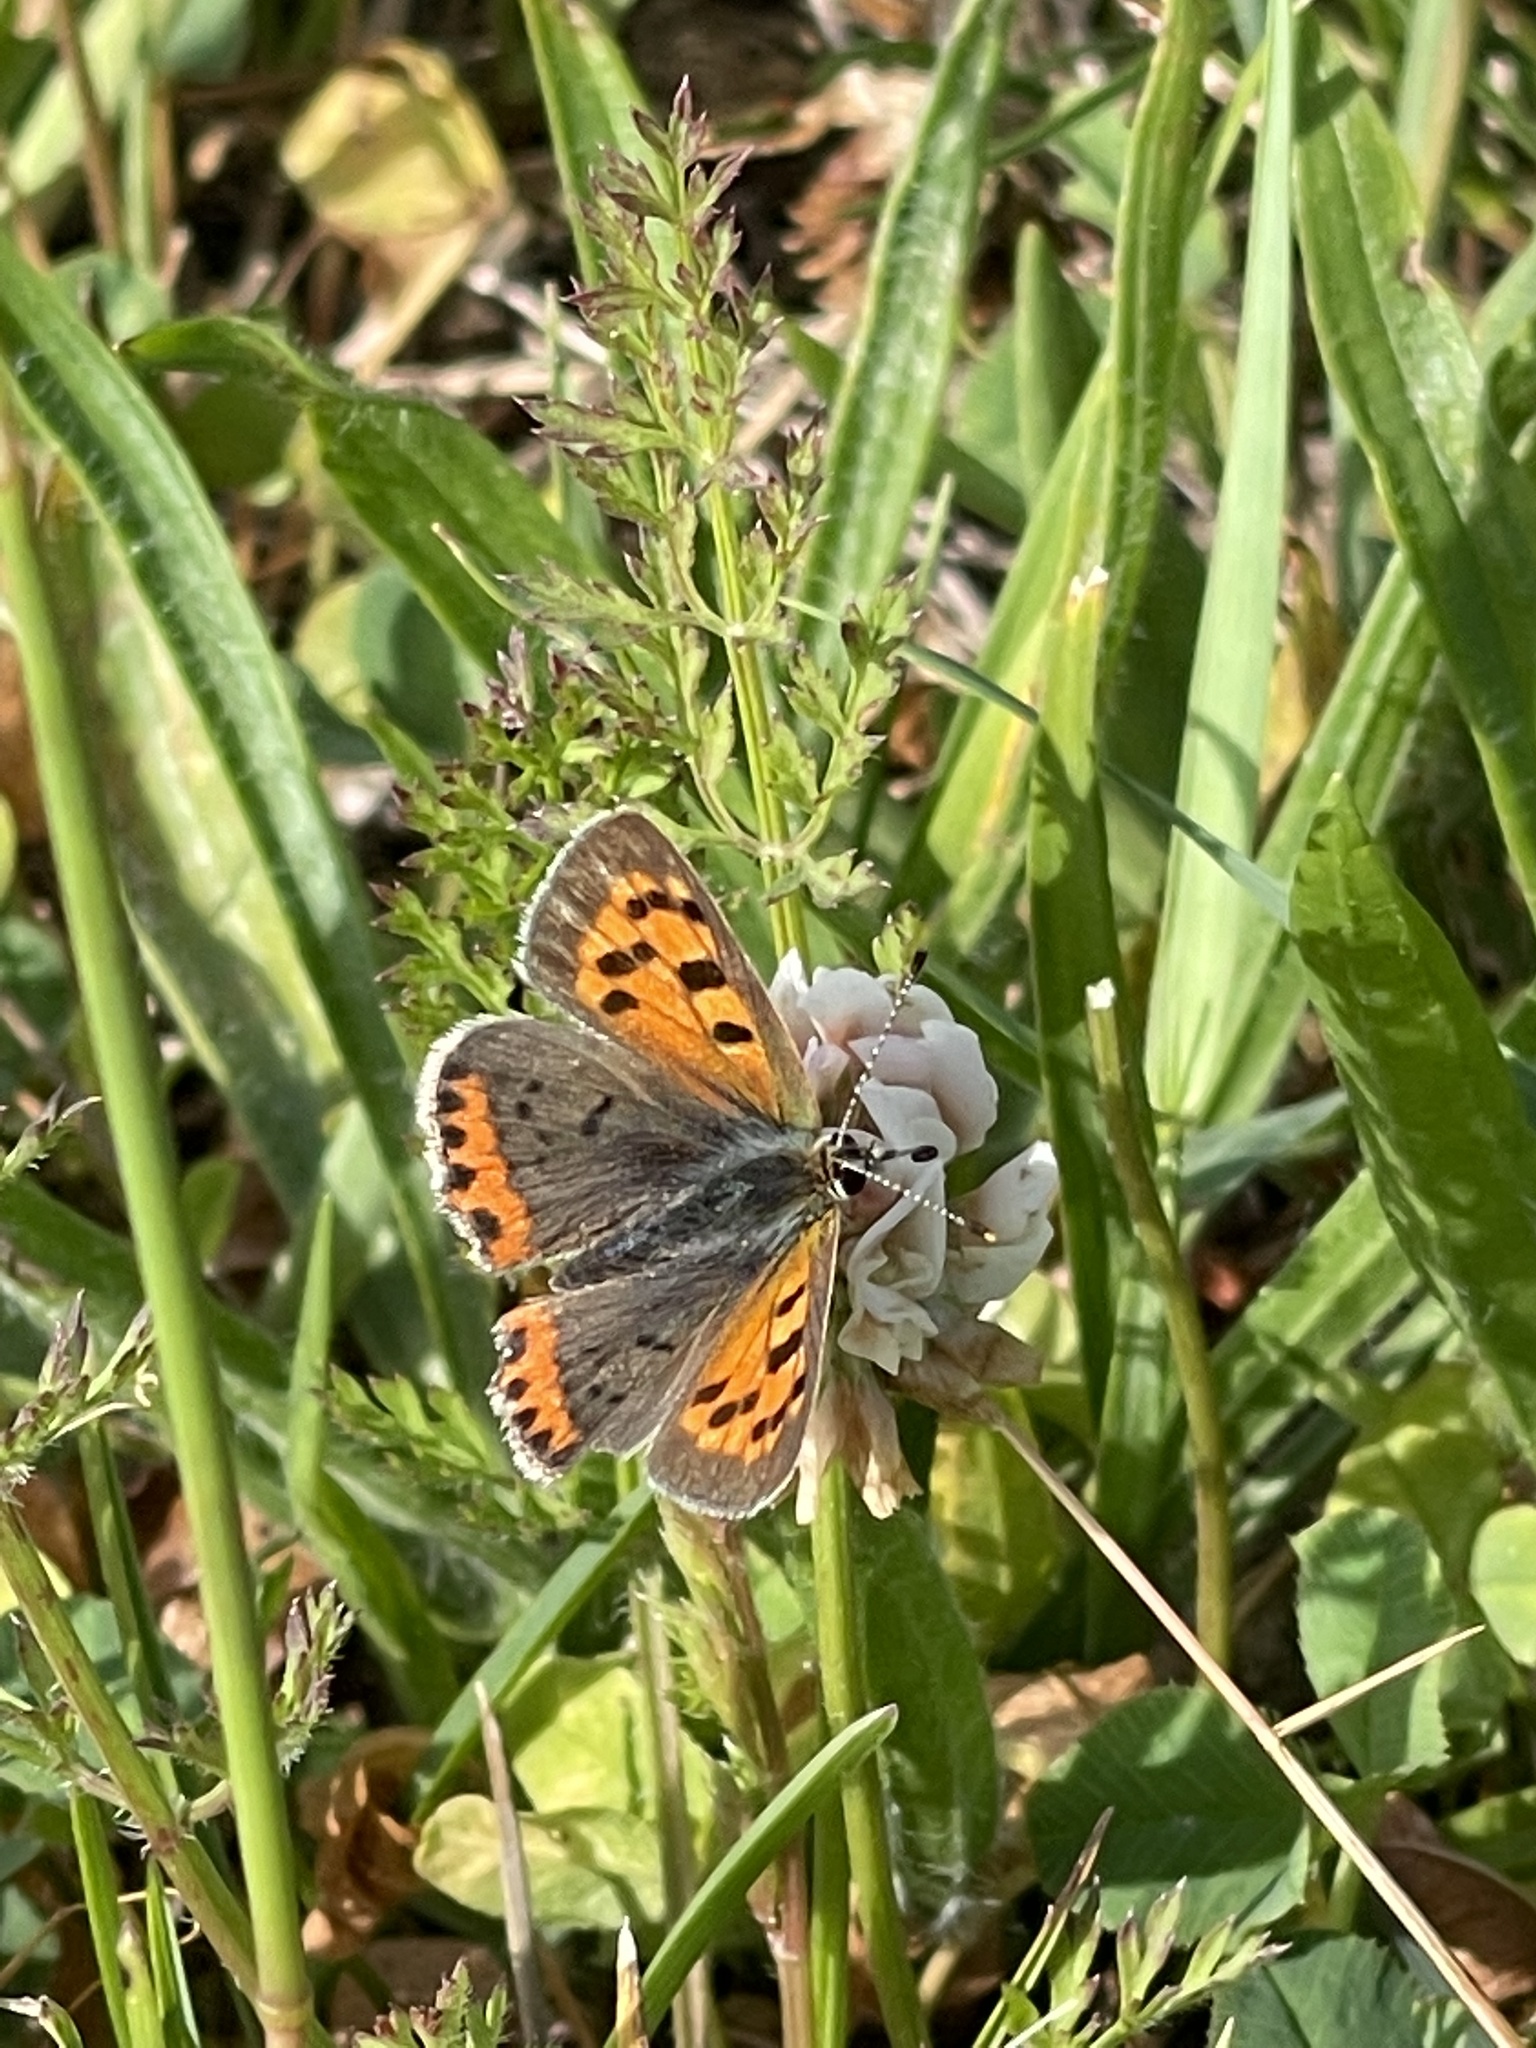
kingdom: Animalia
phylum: Arthropoda
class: Insecta
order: Lepidoptera
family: Lycaenidae
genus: Lycaena
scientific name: Lycaena hypophlaeas
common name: American copper
